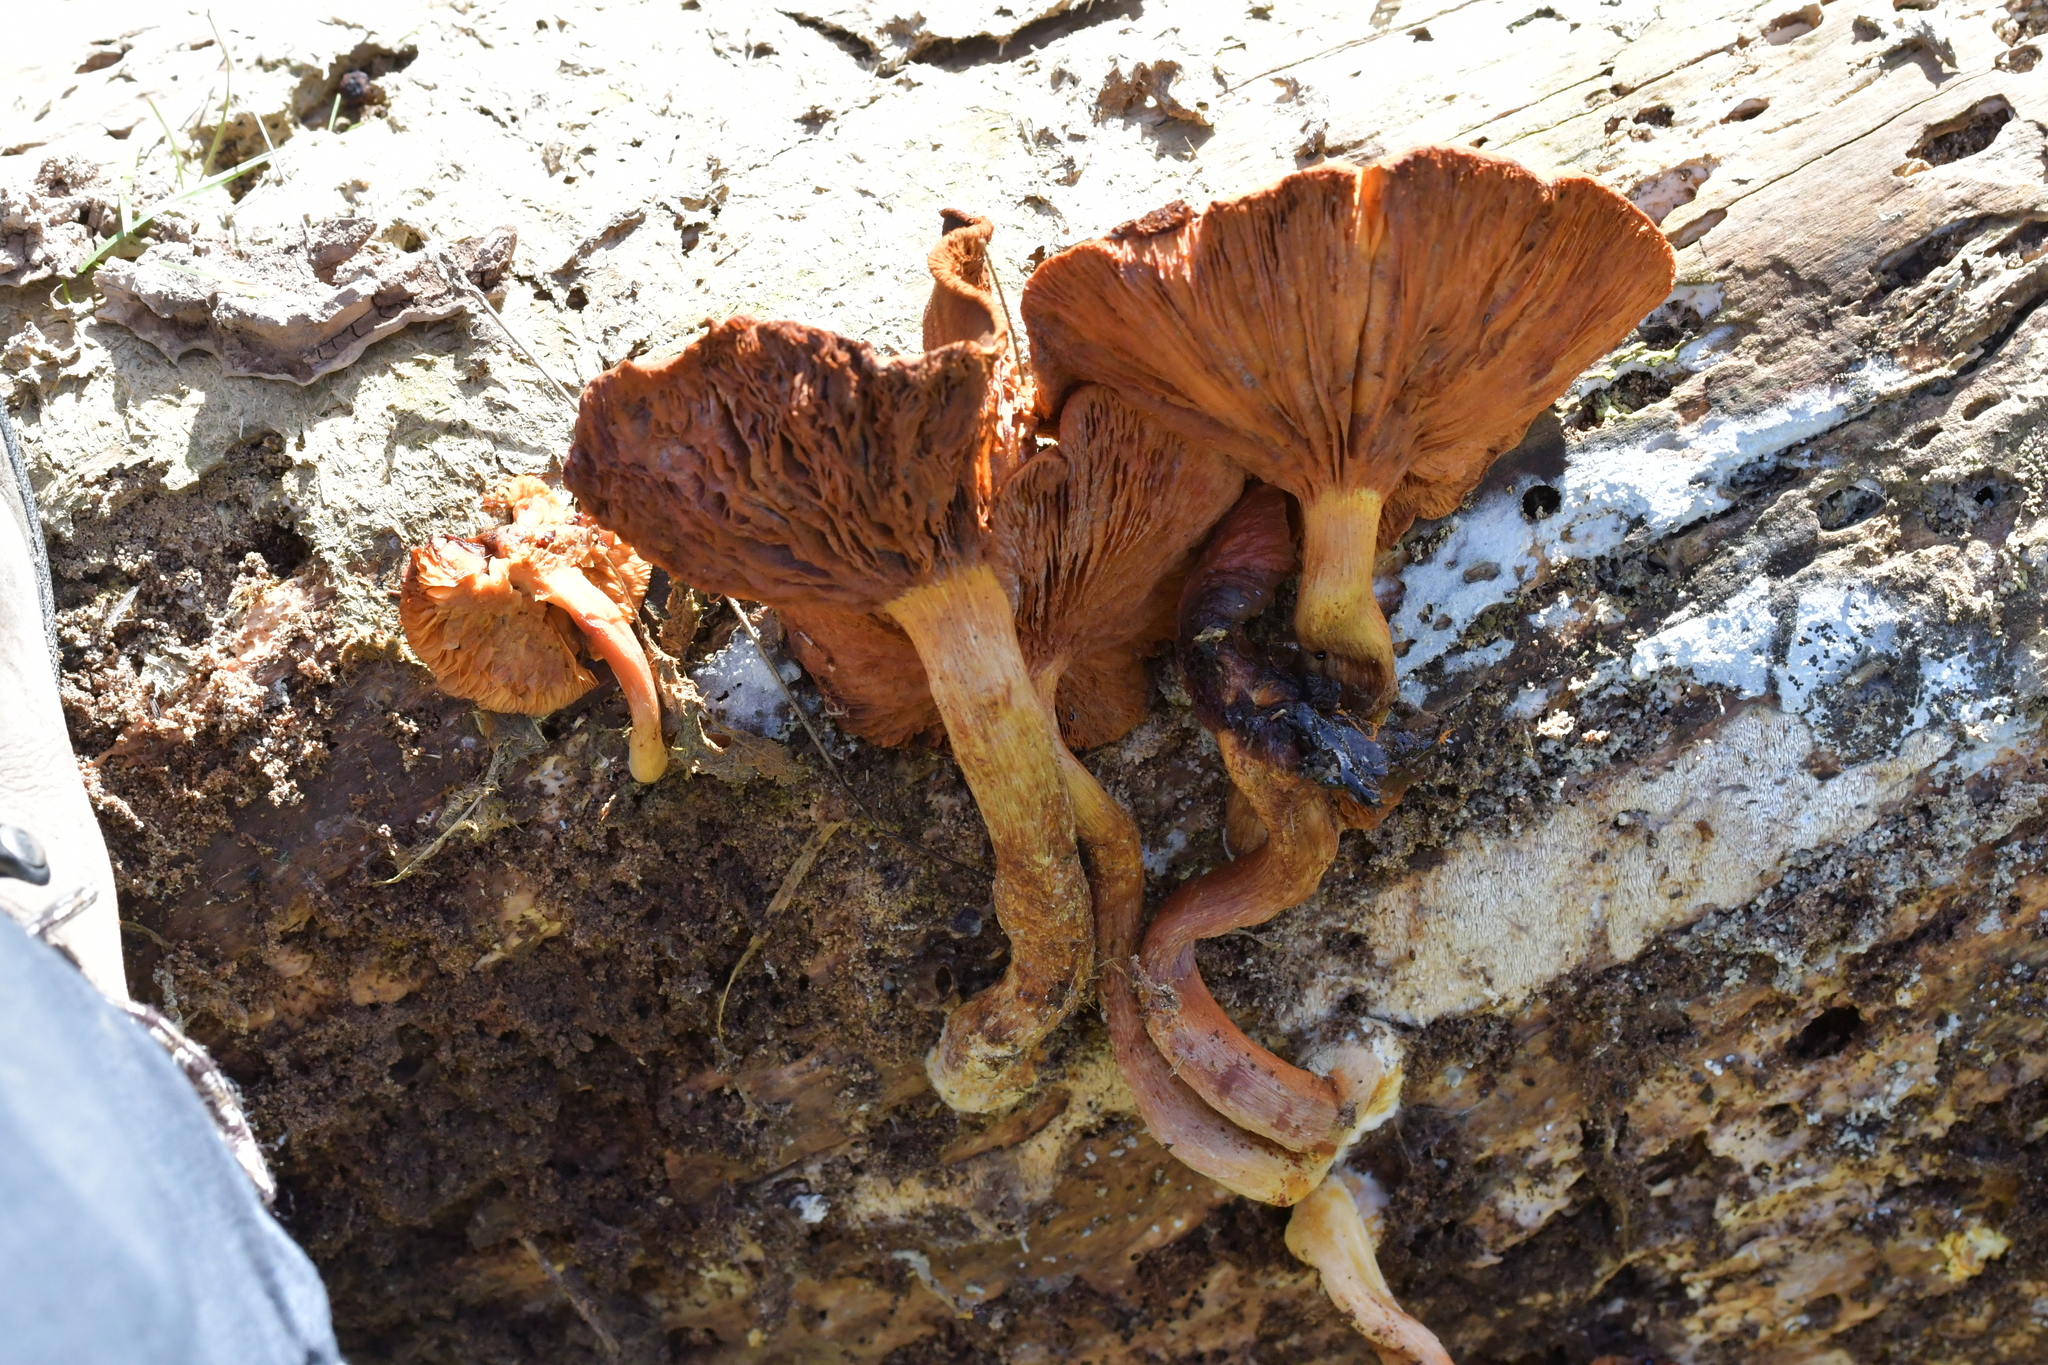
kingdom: Fungi
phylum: Basidiomycota
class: Agaricomycetes
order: Agaricales
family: Hymenogastraceae
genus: Gymnopilus
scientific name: Gymnopilus junonius
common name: Spectacular rustgill
